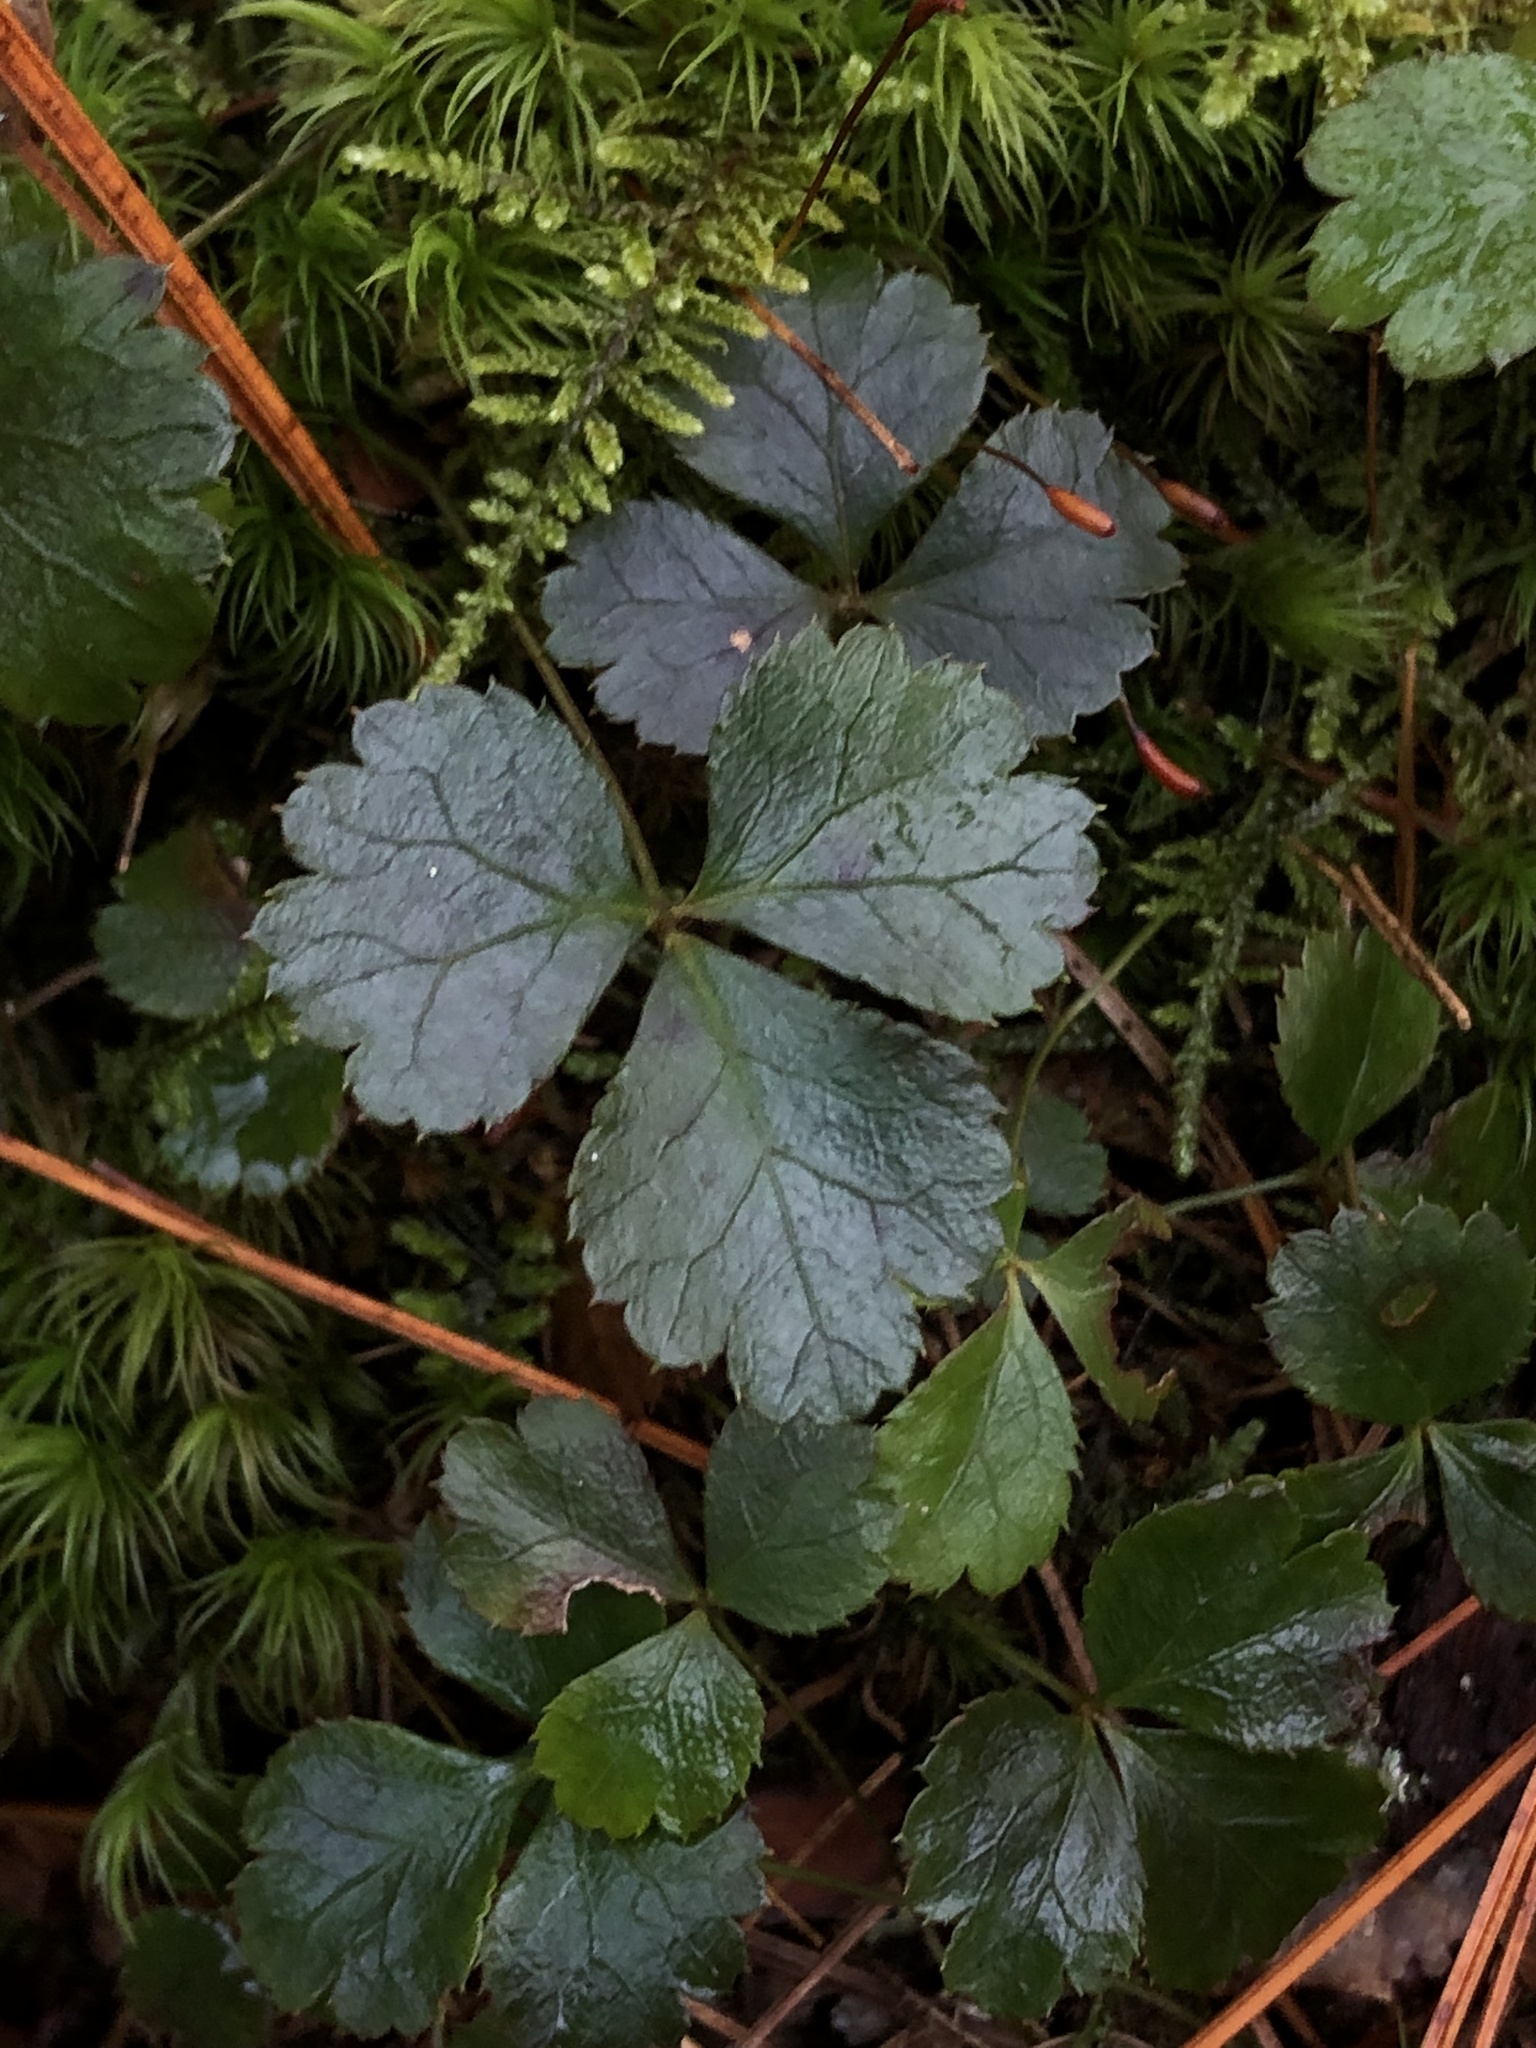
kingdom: Plantae
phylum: Tracheophyta
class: Magnoliopsida
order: Ranunculales
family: Ranunculaceae
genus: Coptis
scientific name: Coptis trifolia
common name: Canker-root
